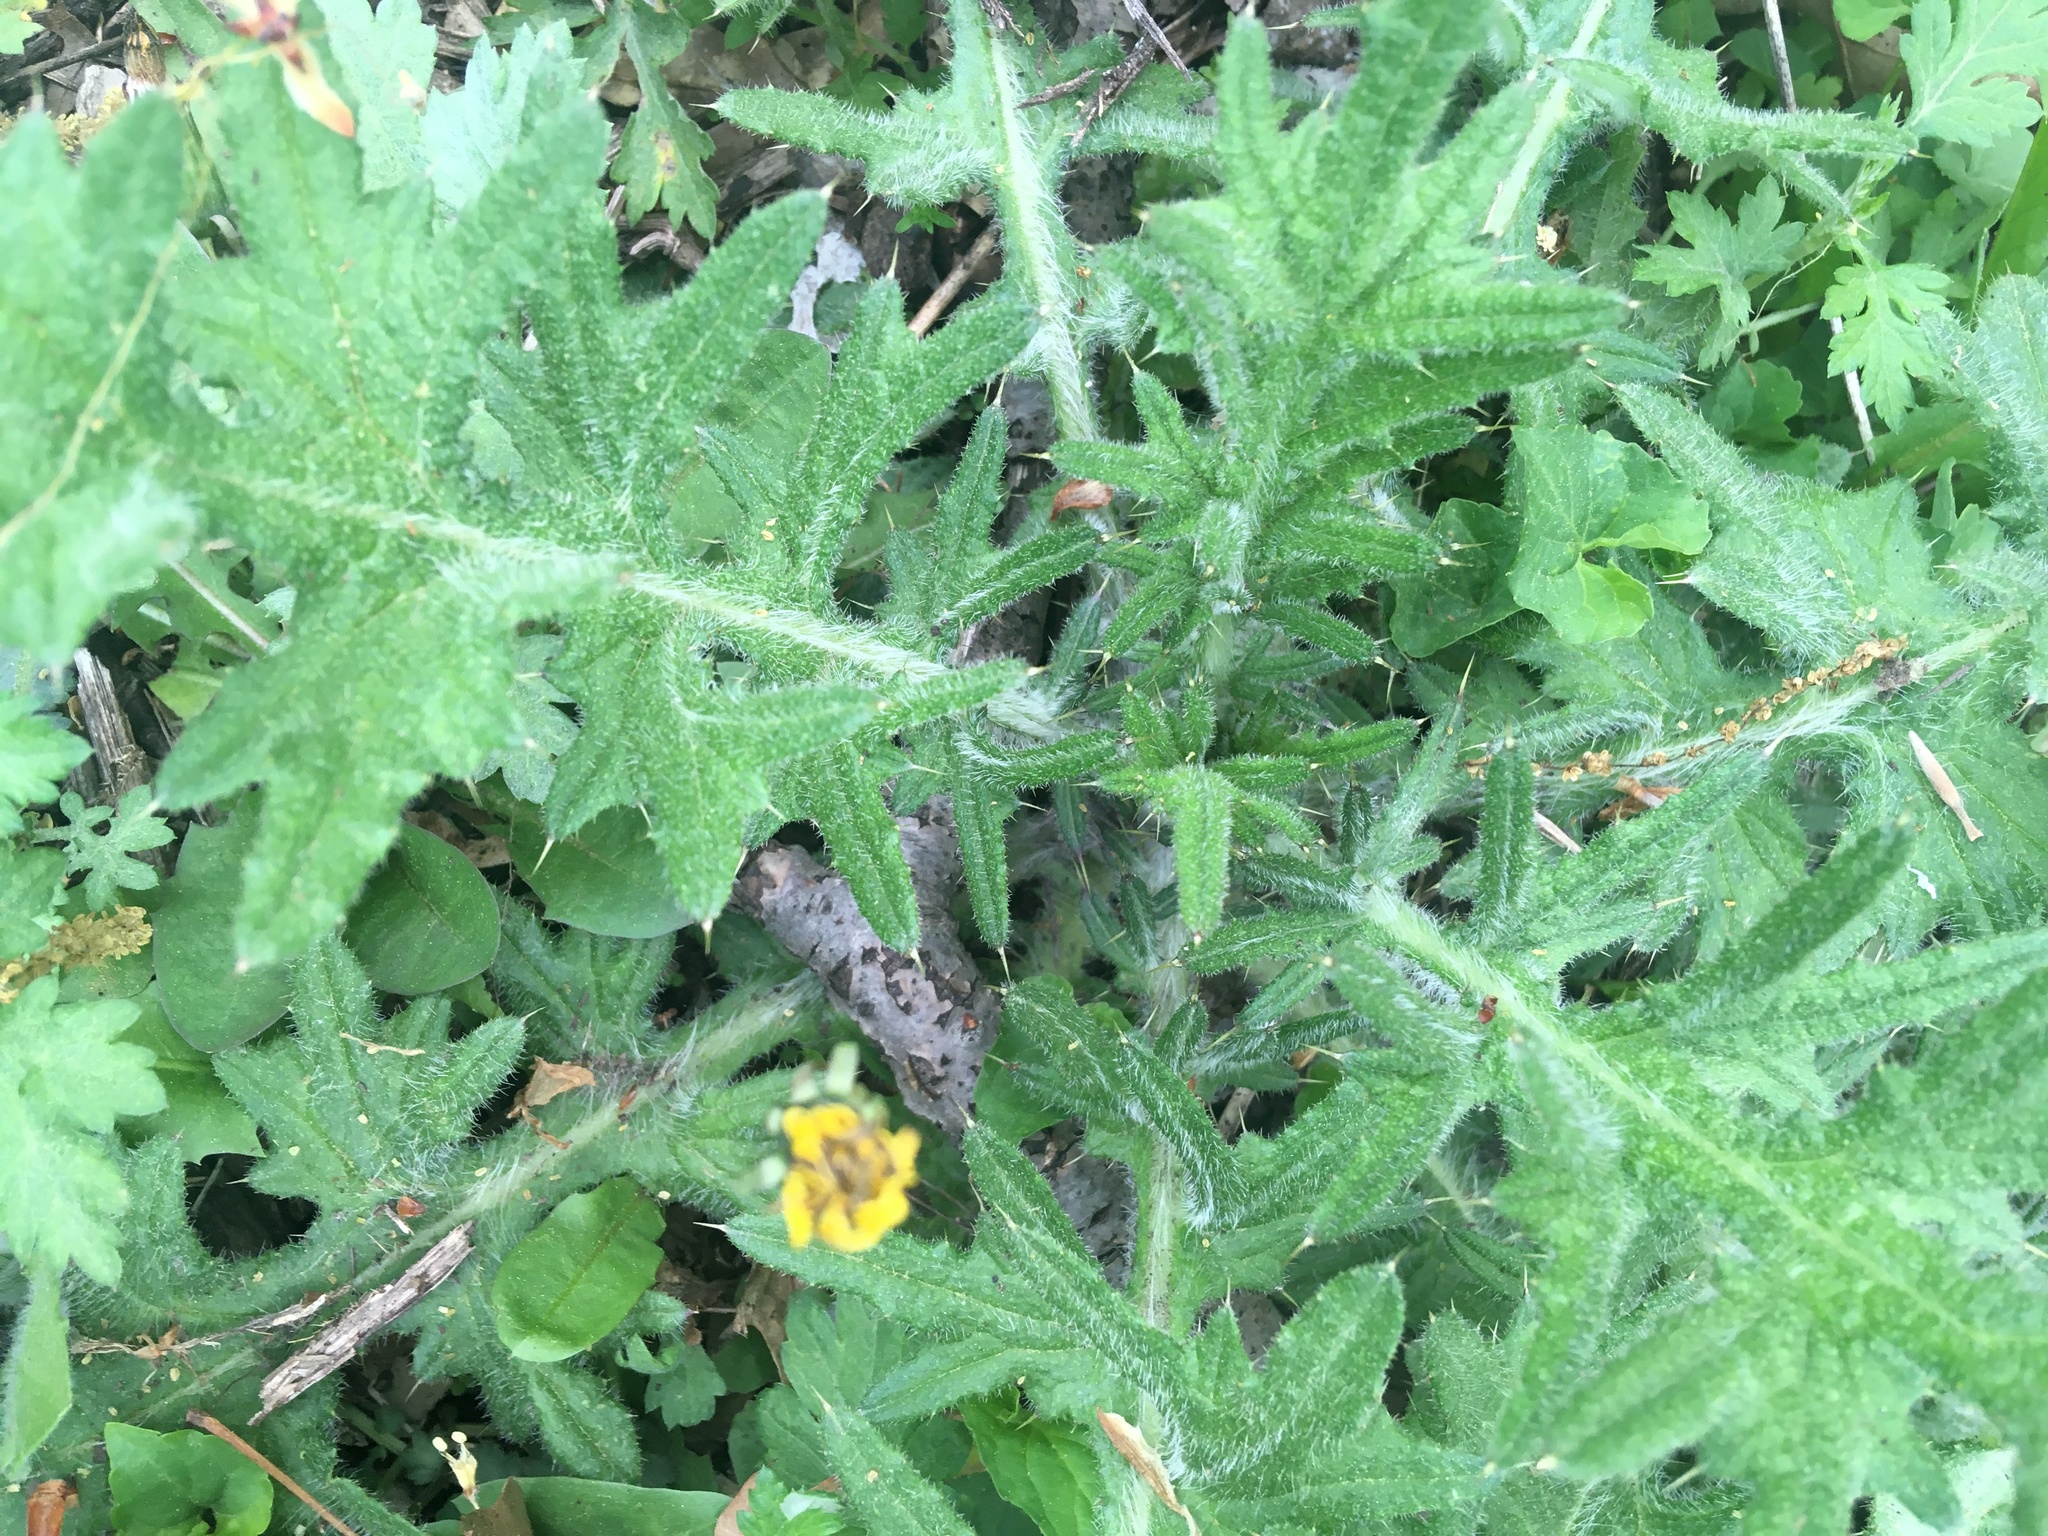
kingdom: Plantae
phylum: Tracheophyta
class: Magnoliopsida
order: Asterales
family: Asteraceae
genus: Cirsium
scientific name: Cirsium vulgare
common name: Bull thistle
